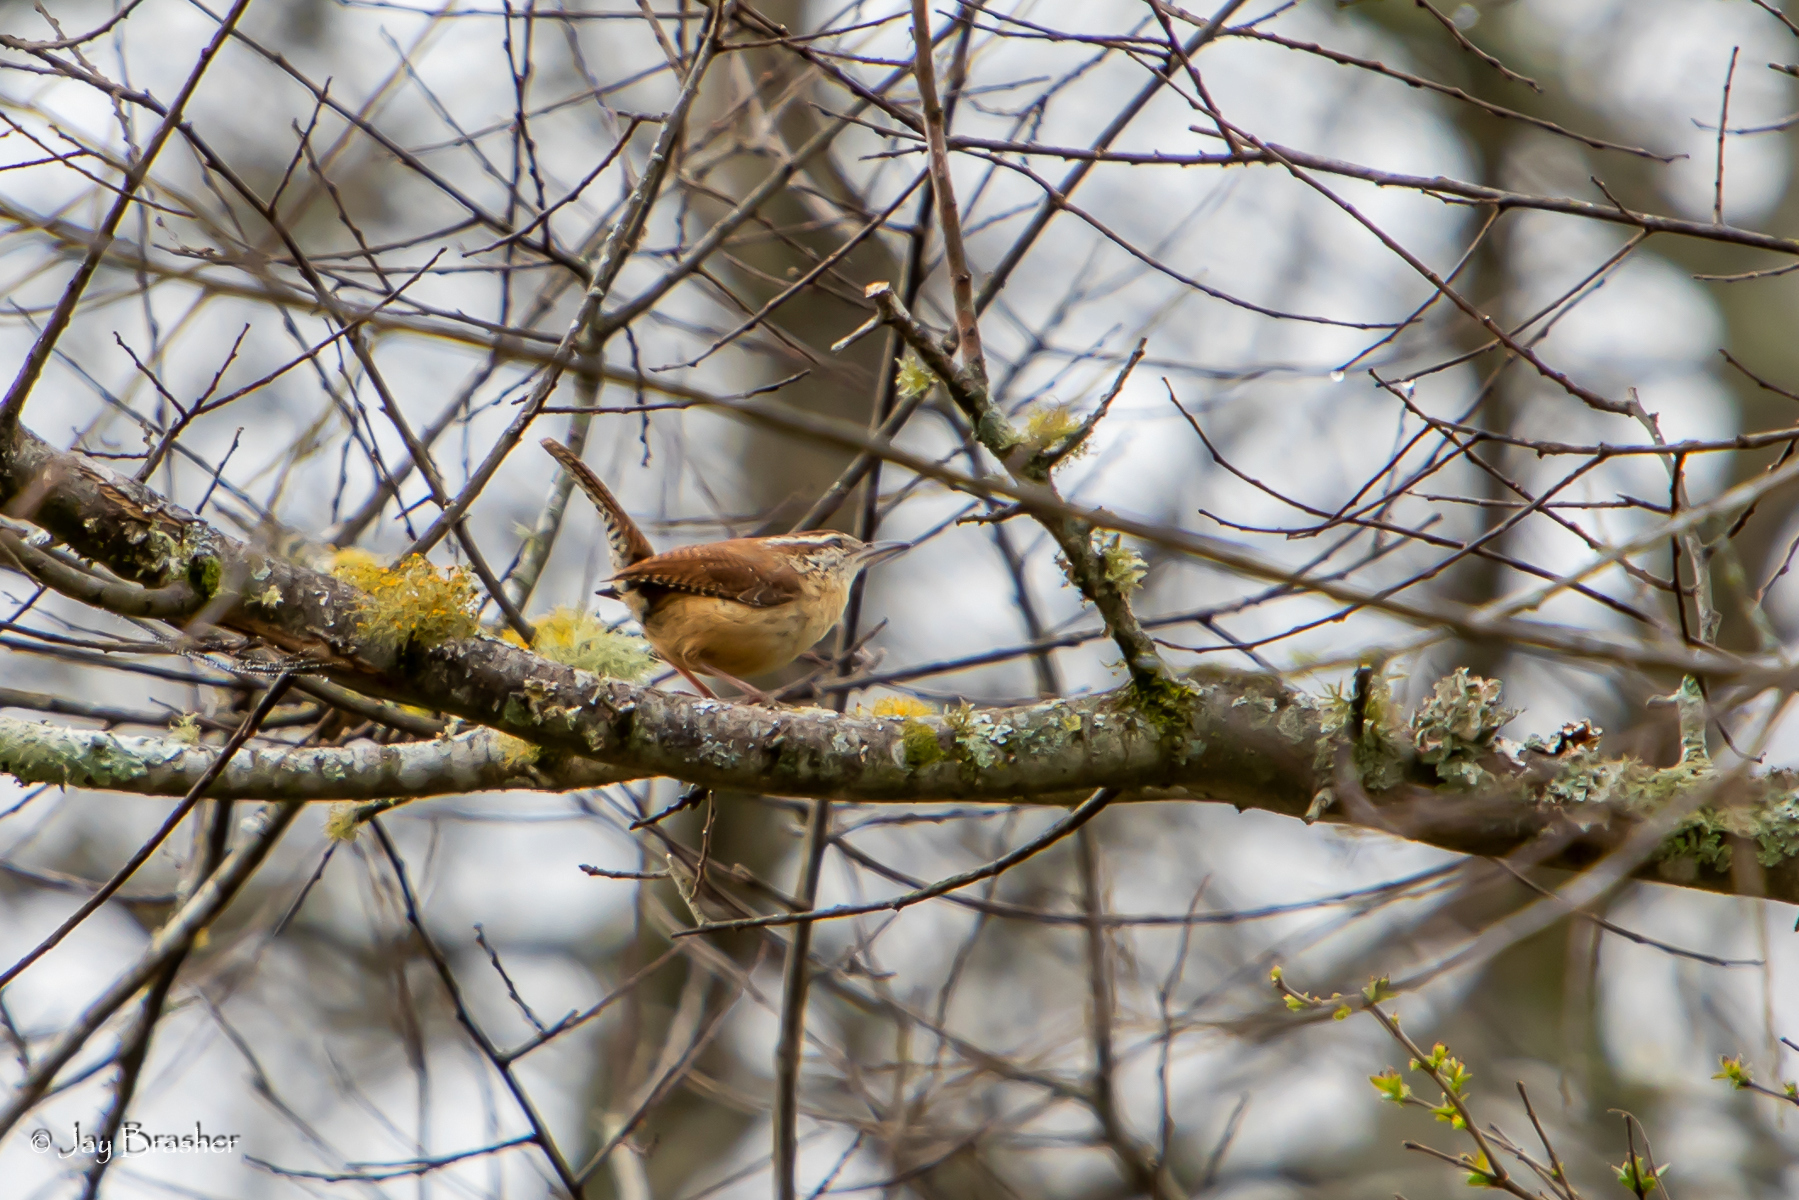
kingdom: Animalia
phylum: Chordata
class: Aves
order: Passeriformes
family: Troglodytidae
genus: Thryothorus
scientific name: Thryothorus ludovicianus
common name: Carolina wren
